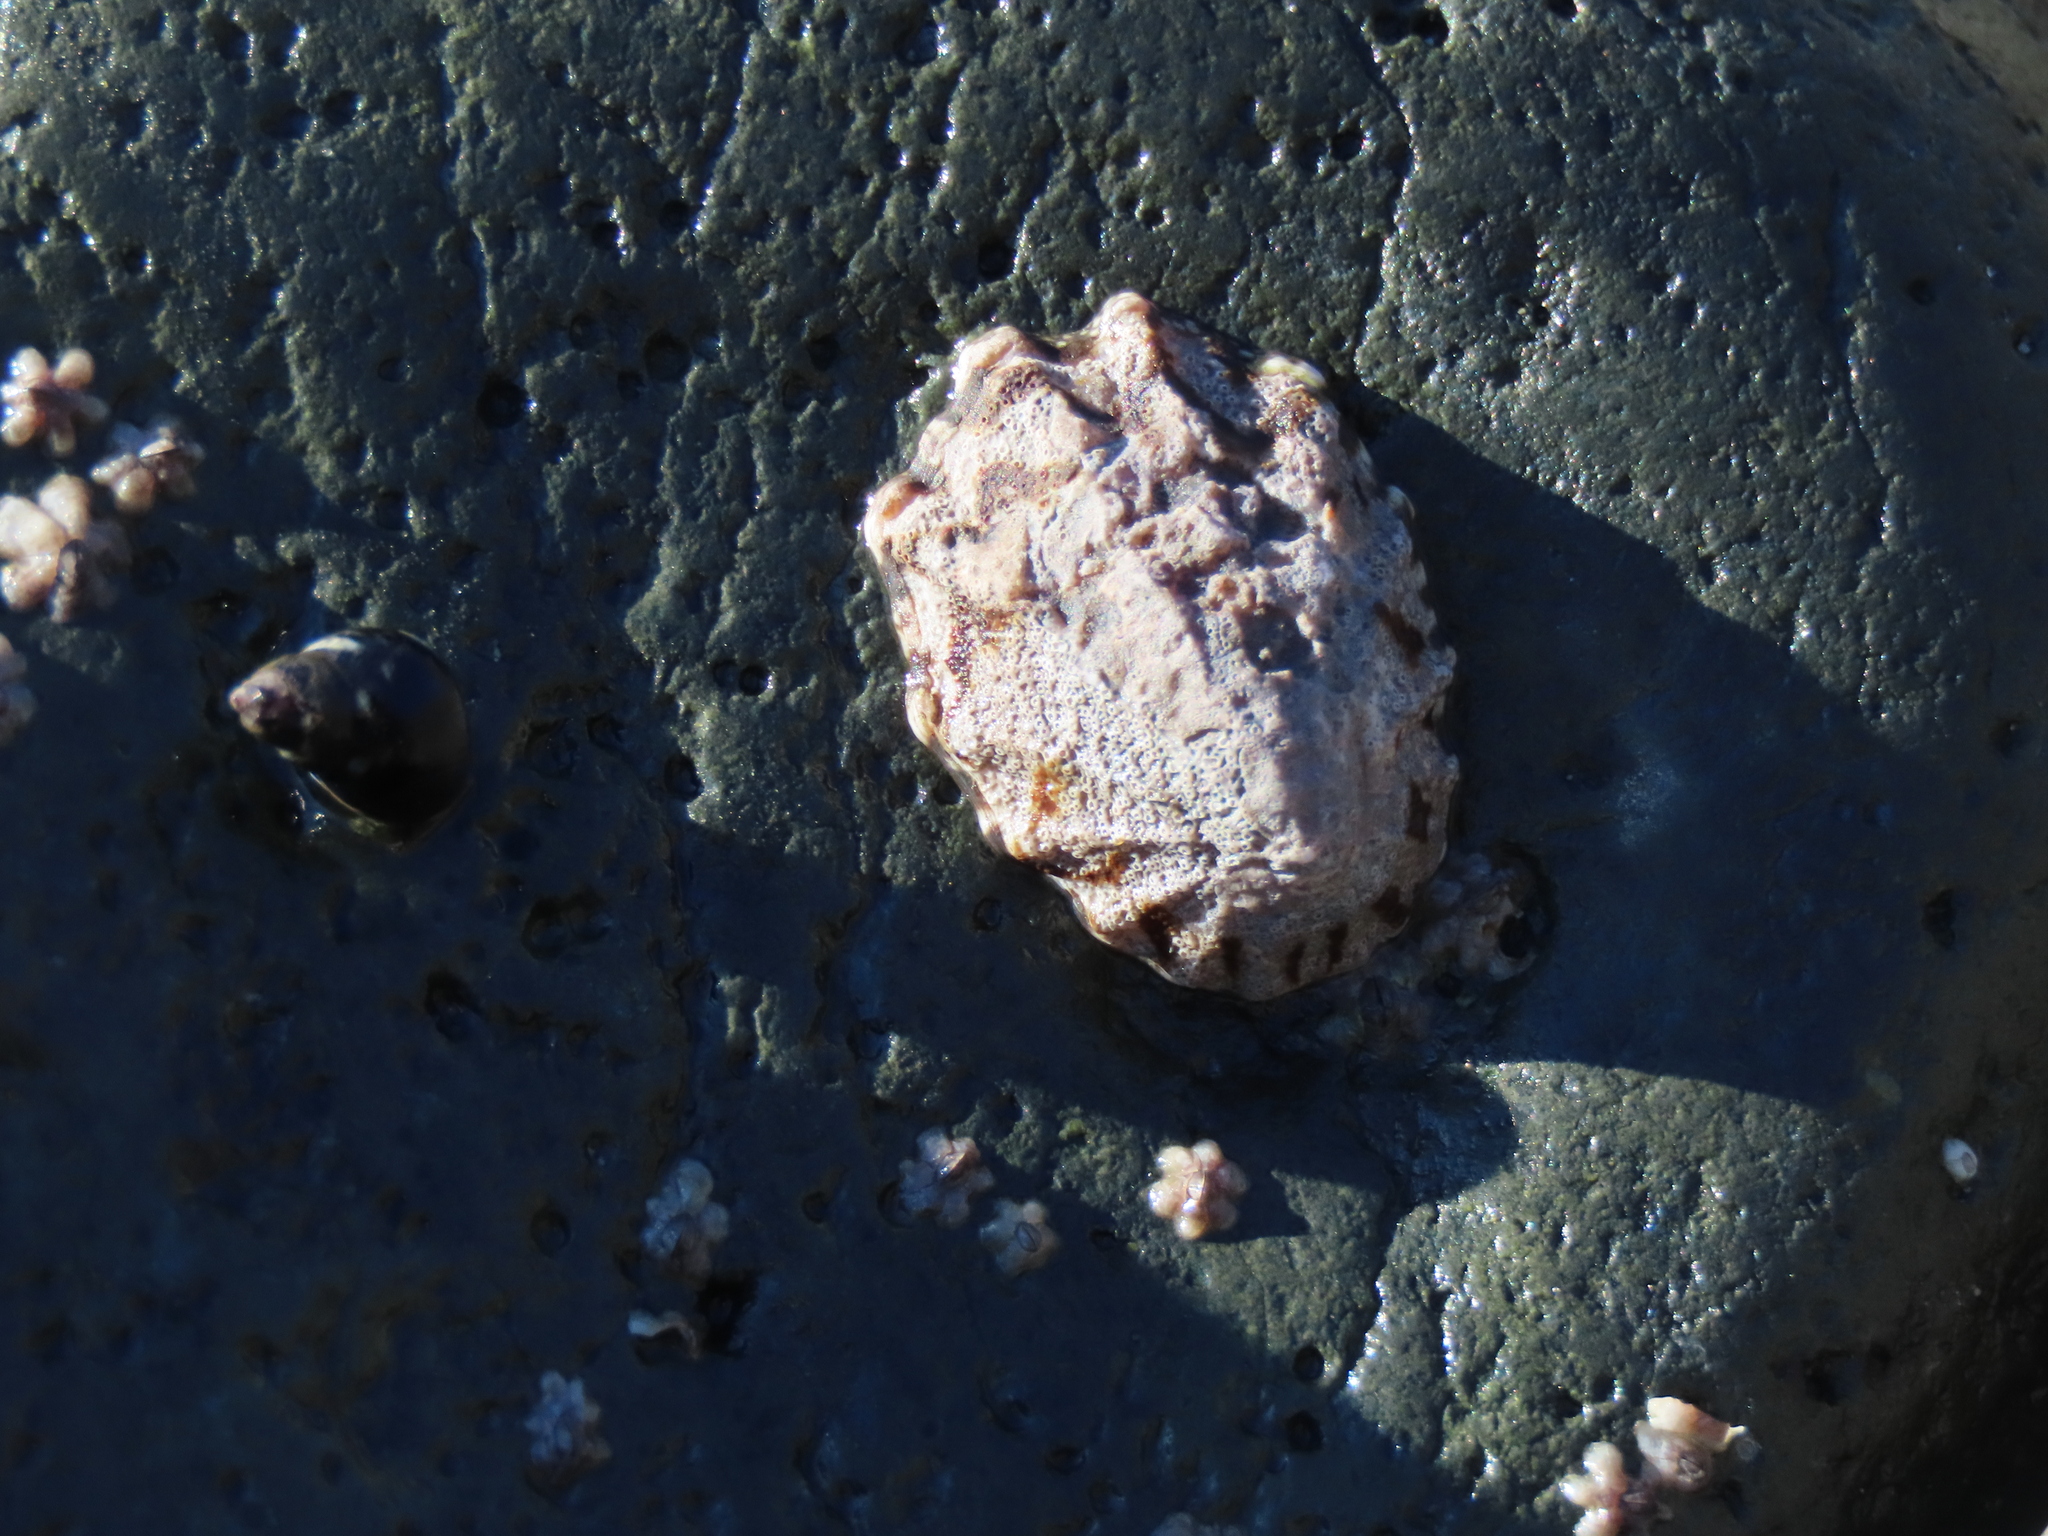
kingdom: Animalia
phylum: Mollusca
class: Gastropoda
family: Lottiidae
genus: Lottia
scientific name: Lottia digitalis
